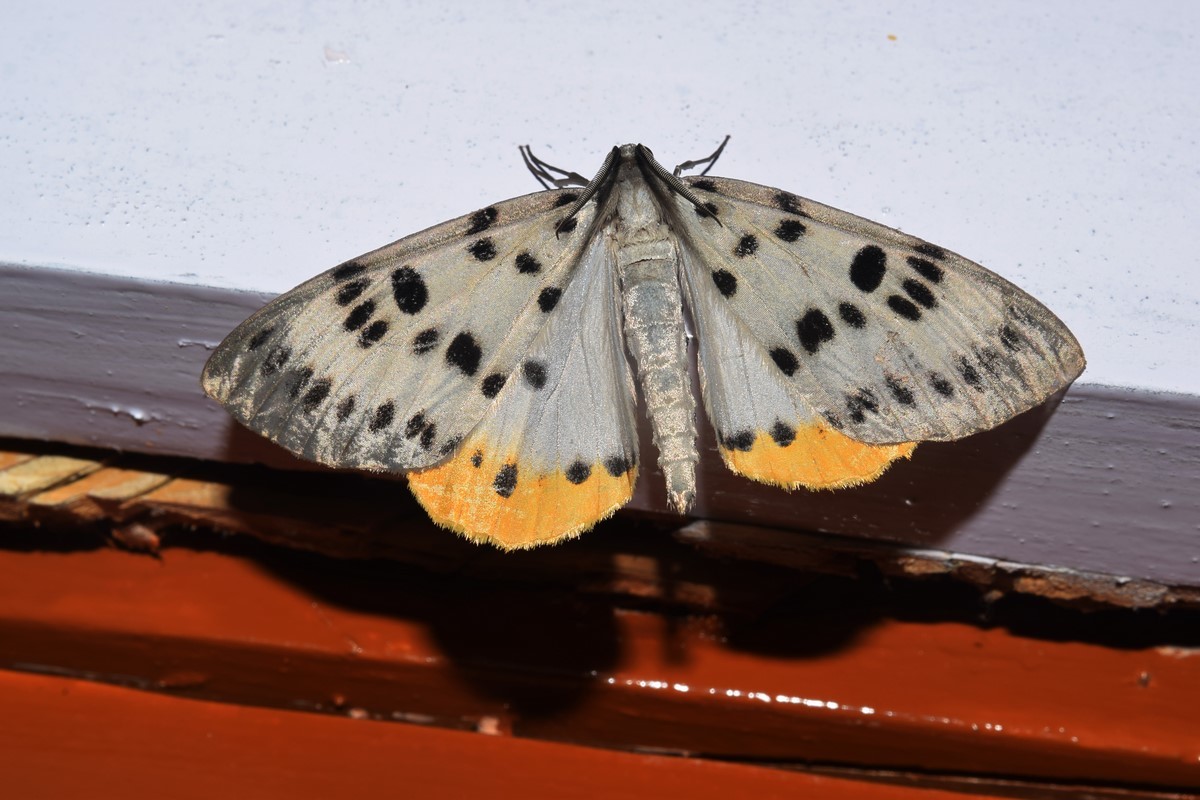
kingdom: Animalia
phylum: Arthropoda
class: Insecta
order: Lepidoptera
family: Geometridae
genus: Arichanna
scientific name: Arichanna jaguarinaria
